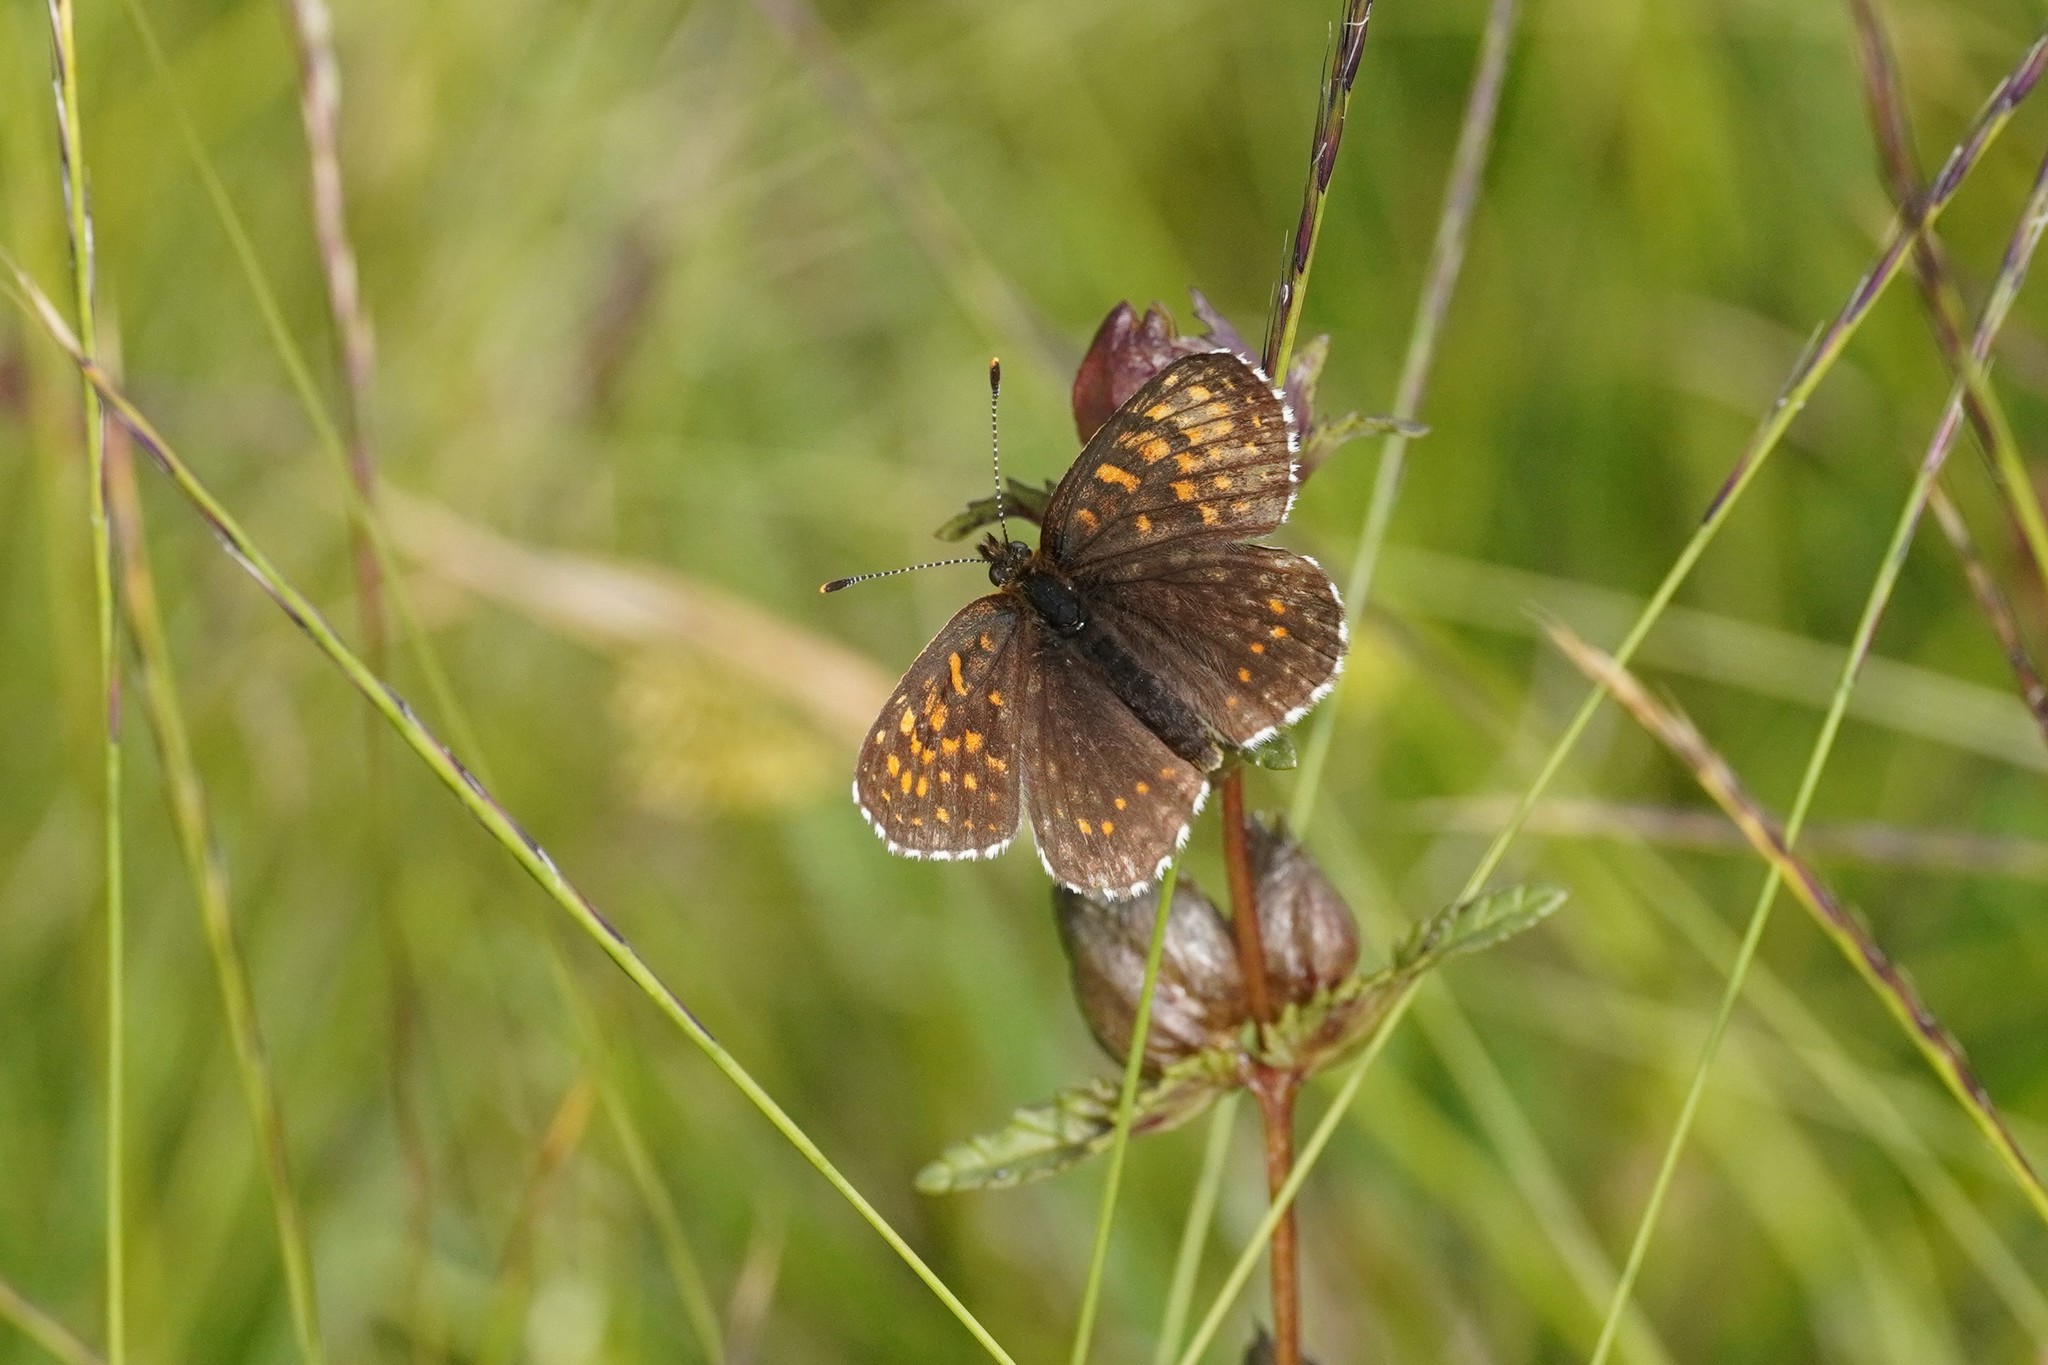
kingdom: Animalia
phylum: Arthropoda
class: Insecta
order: Lepidoptera
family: Nymphalidae
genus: Melitaea
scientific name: Melitaea diamina
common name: False heath fritillary
